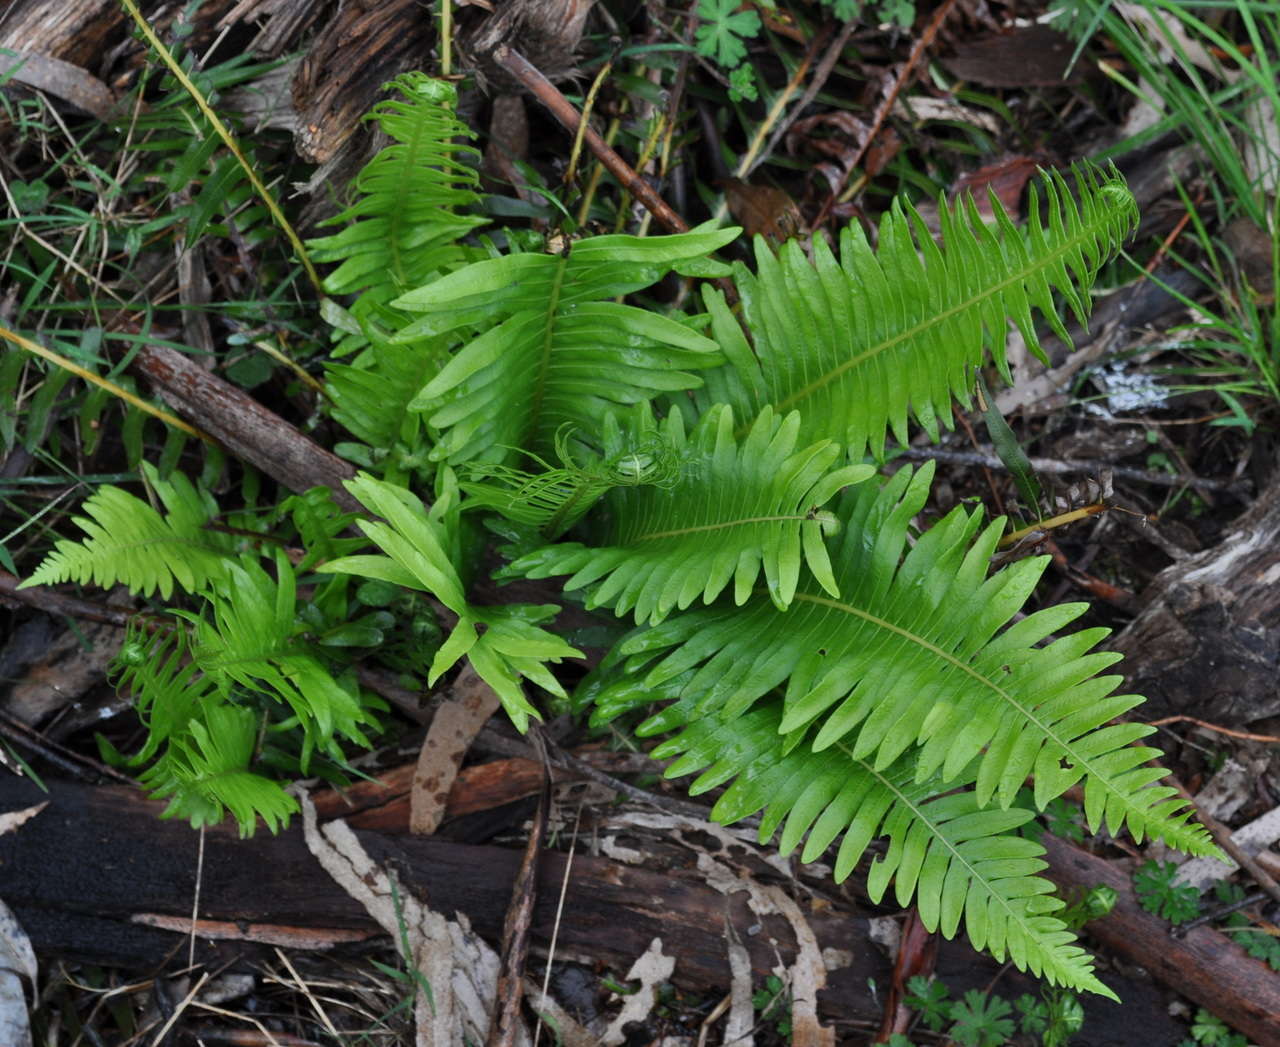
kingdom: Plantae
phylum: Tracheophyta
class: Polypodiopsida
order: Polypodiales
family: Blechnaceae
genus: Lomaria
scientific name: Lomaria nuda
